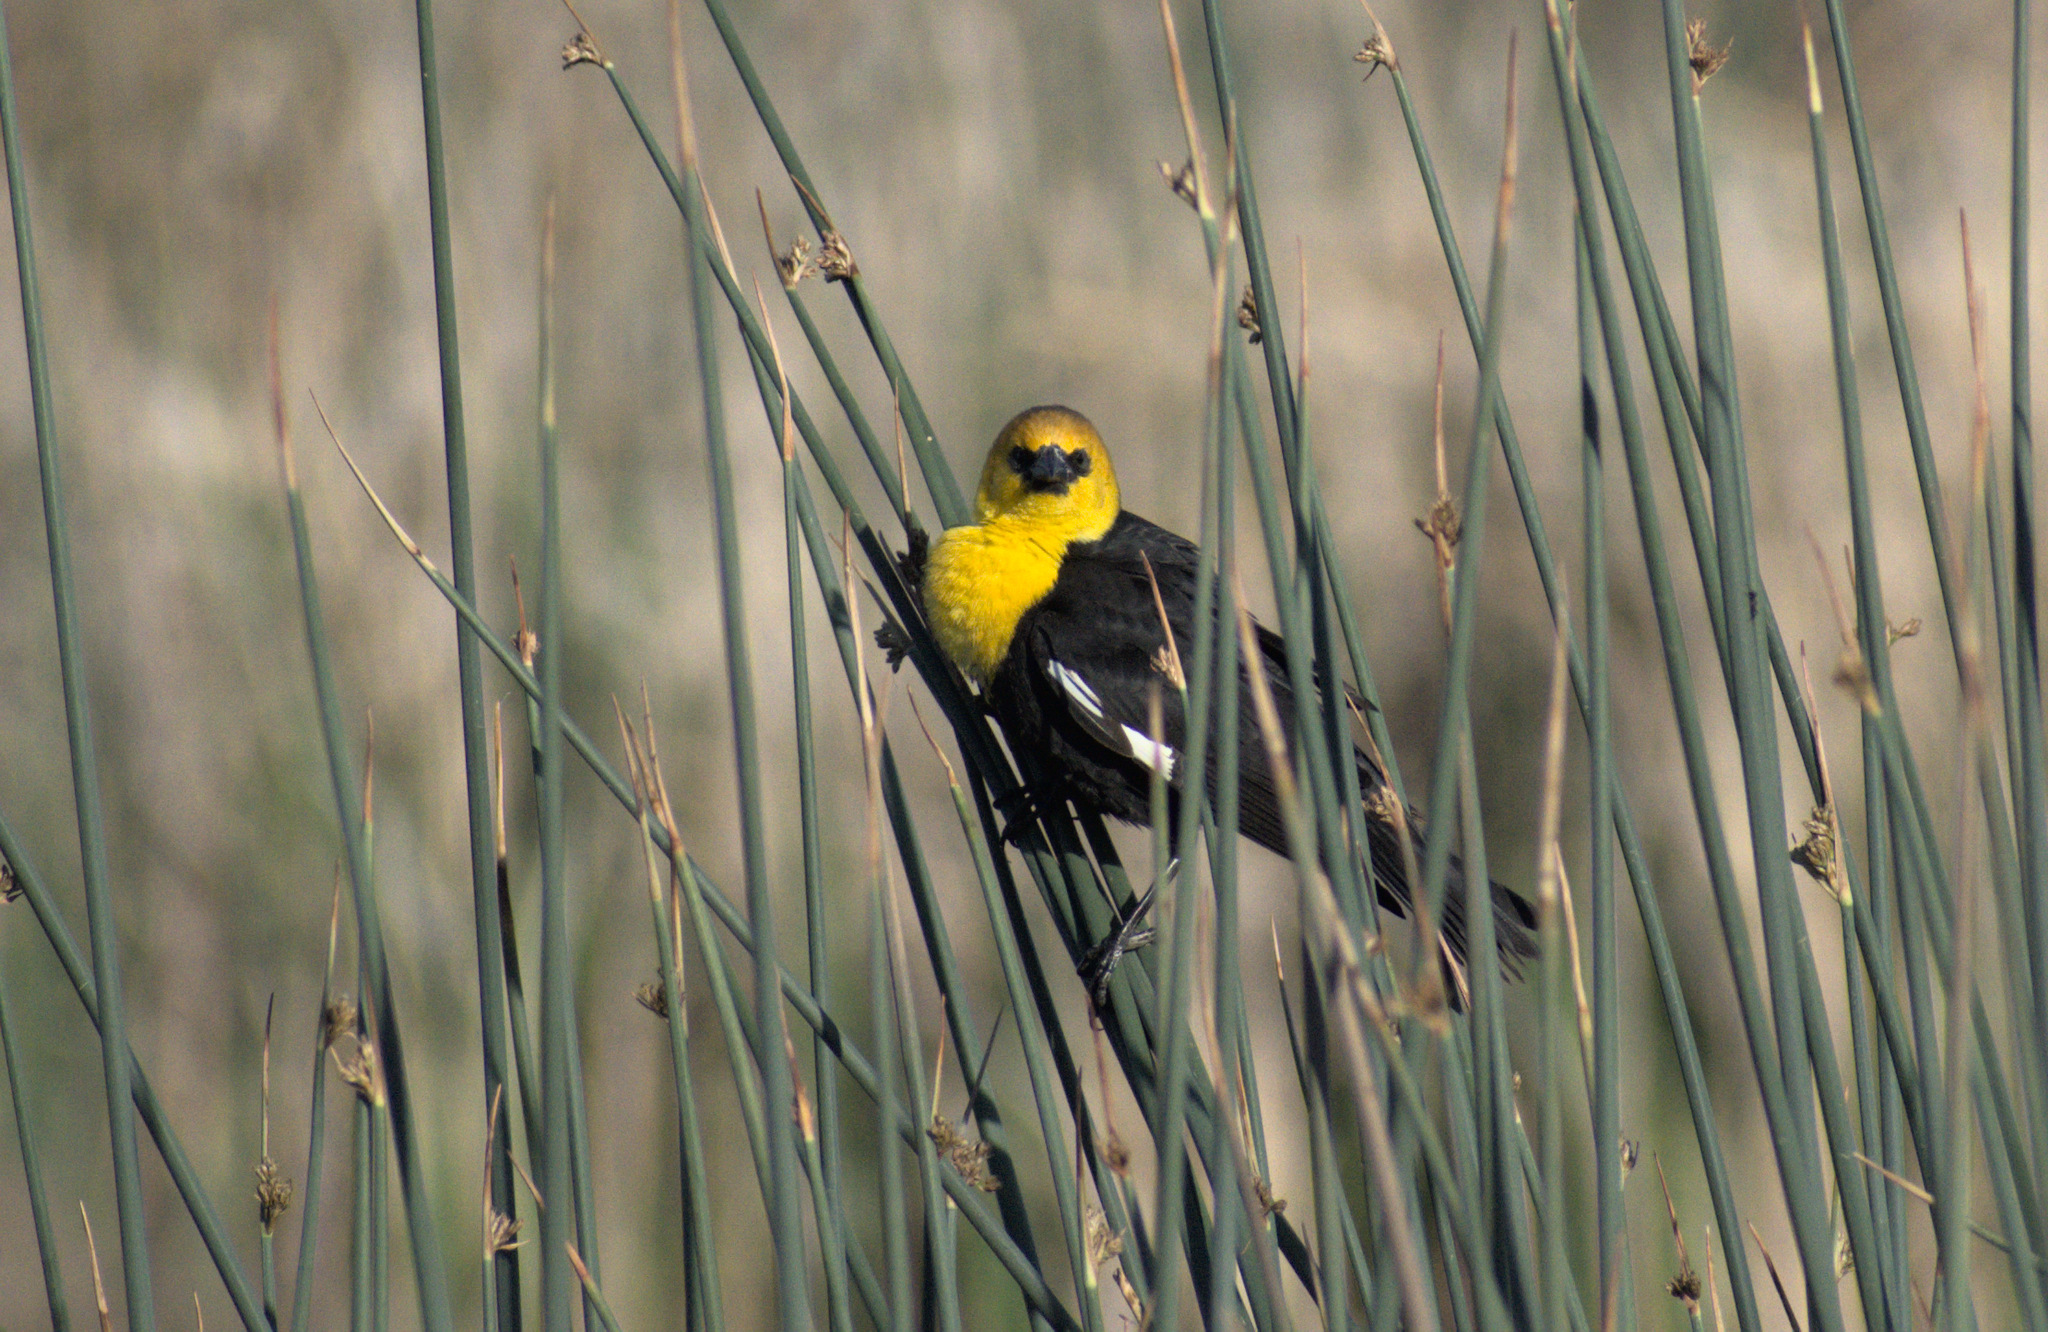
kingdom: Animalia
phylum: Chordata
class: Aves
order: Passeriformes
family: Icteridae
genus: Xanthocephalus
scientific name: Xanthocephalus xanthocephalus
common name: Yellow-headed blackbird
